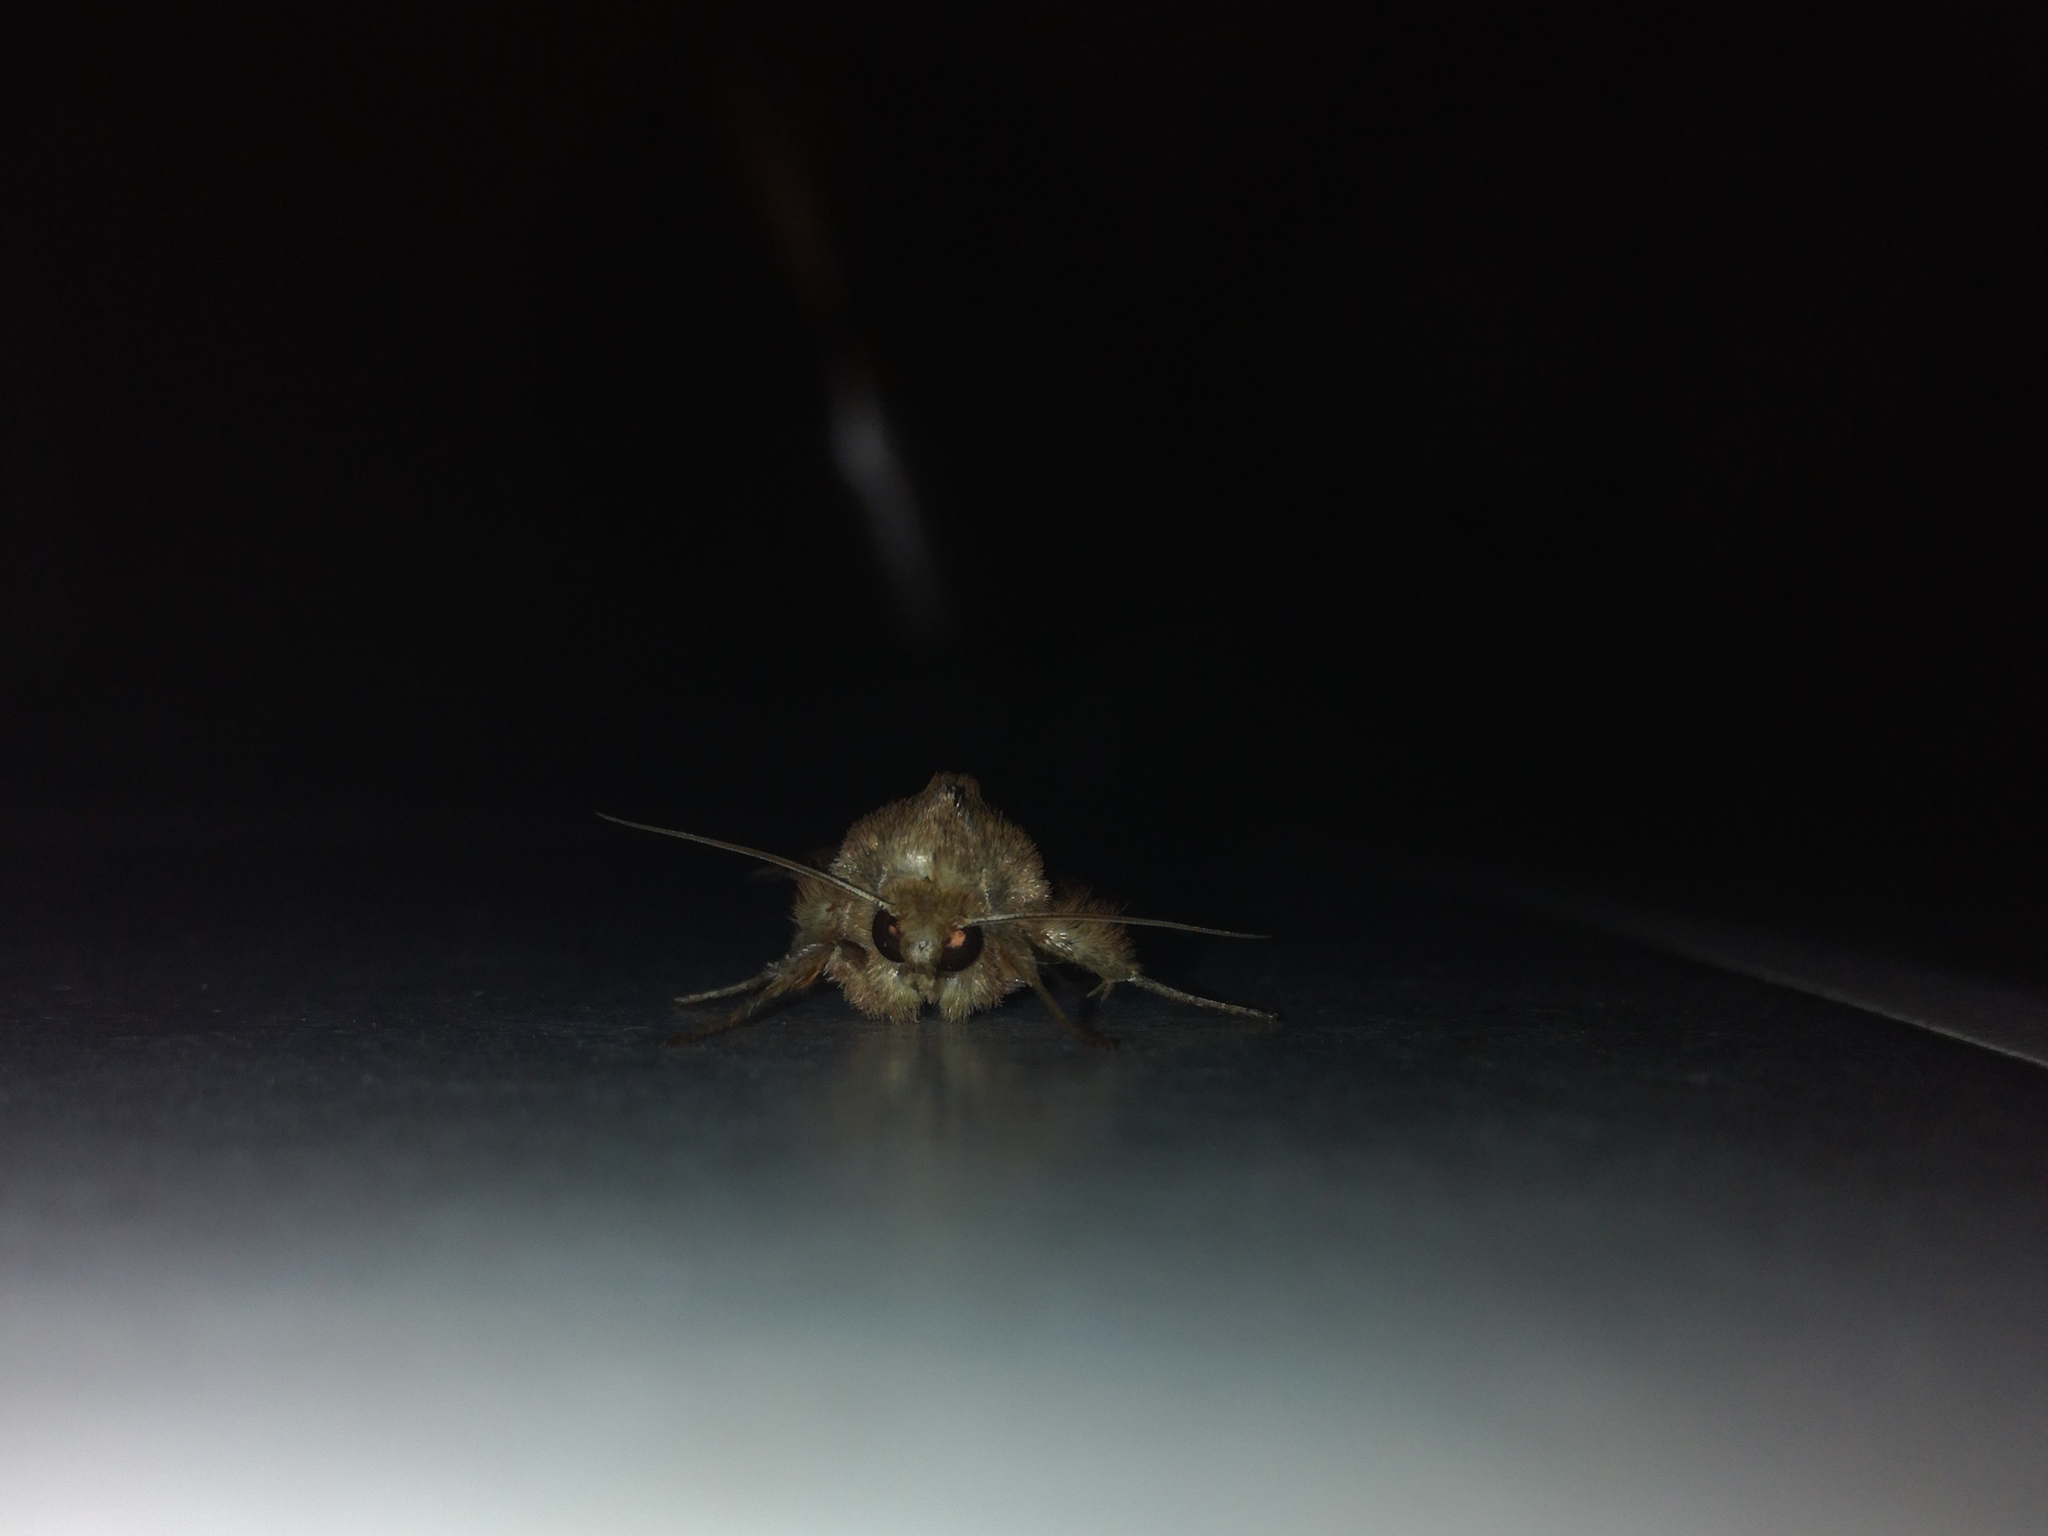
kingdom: Animalia
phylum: Arthropoda
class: Insecta
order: Lepidoptera
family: Noctuidae
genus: Mythimna
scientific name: Mythimna turca
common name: Double line
